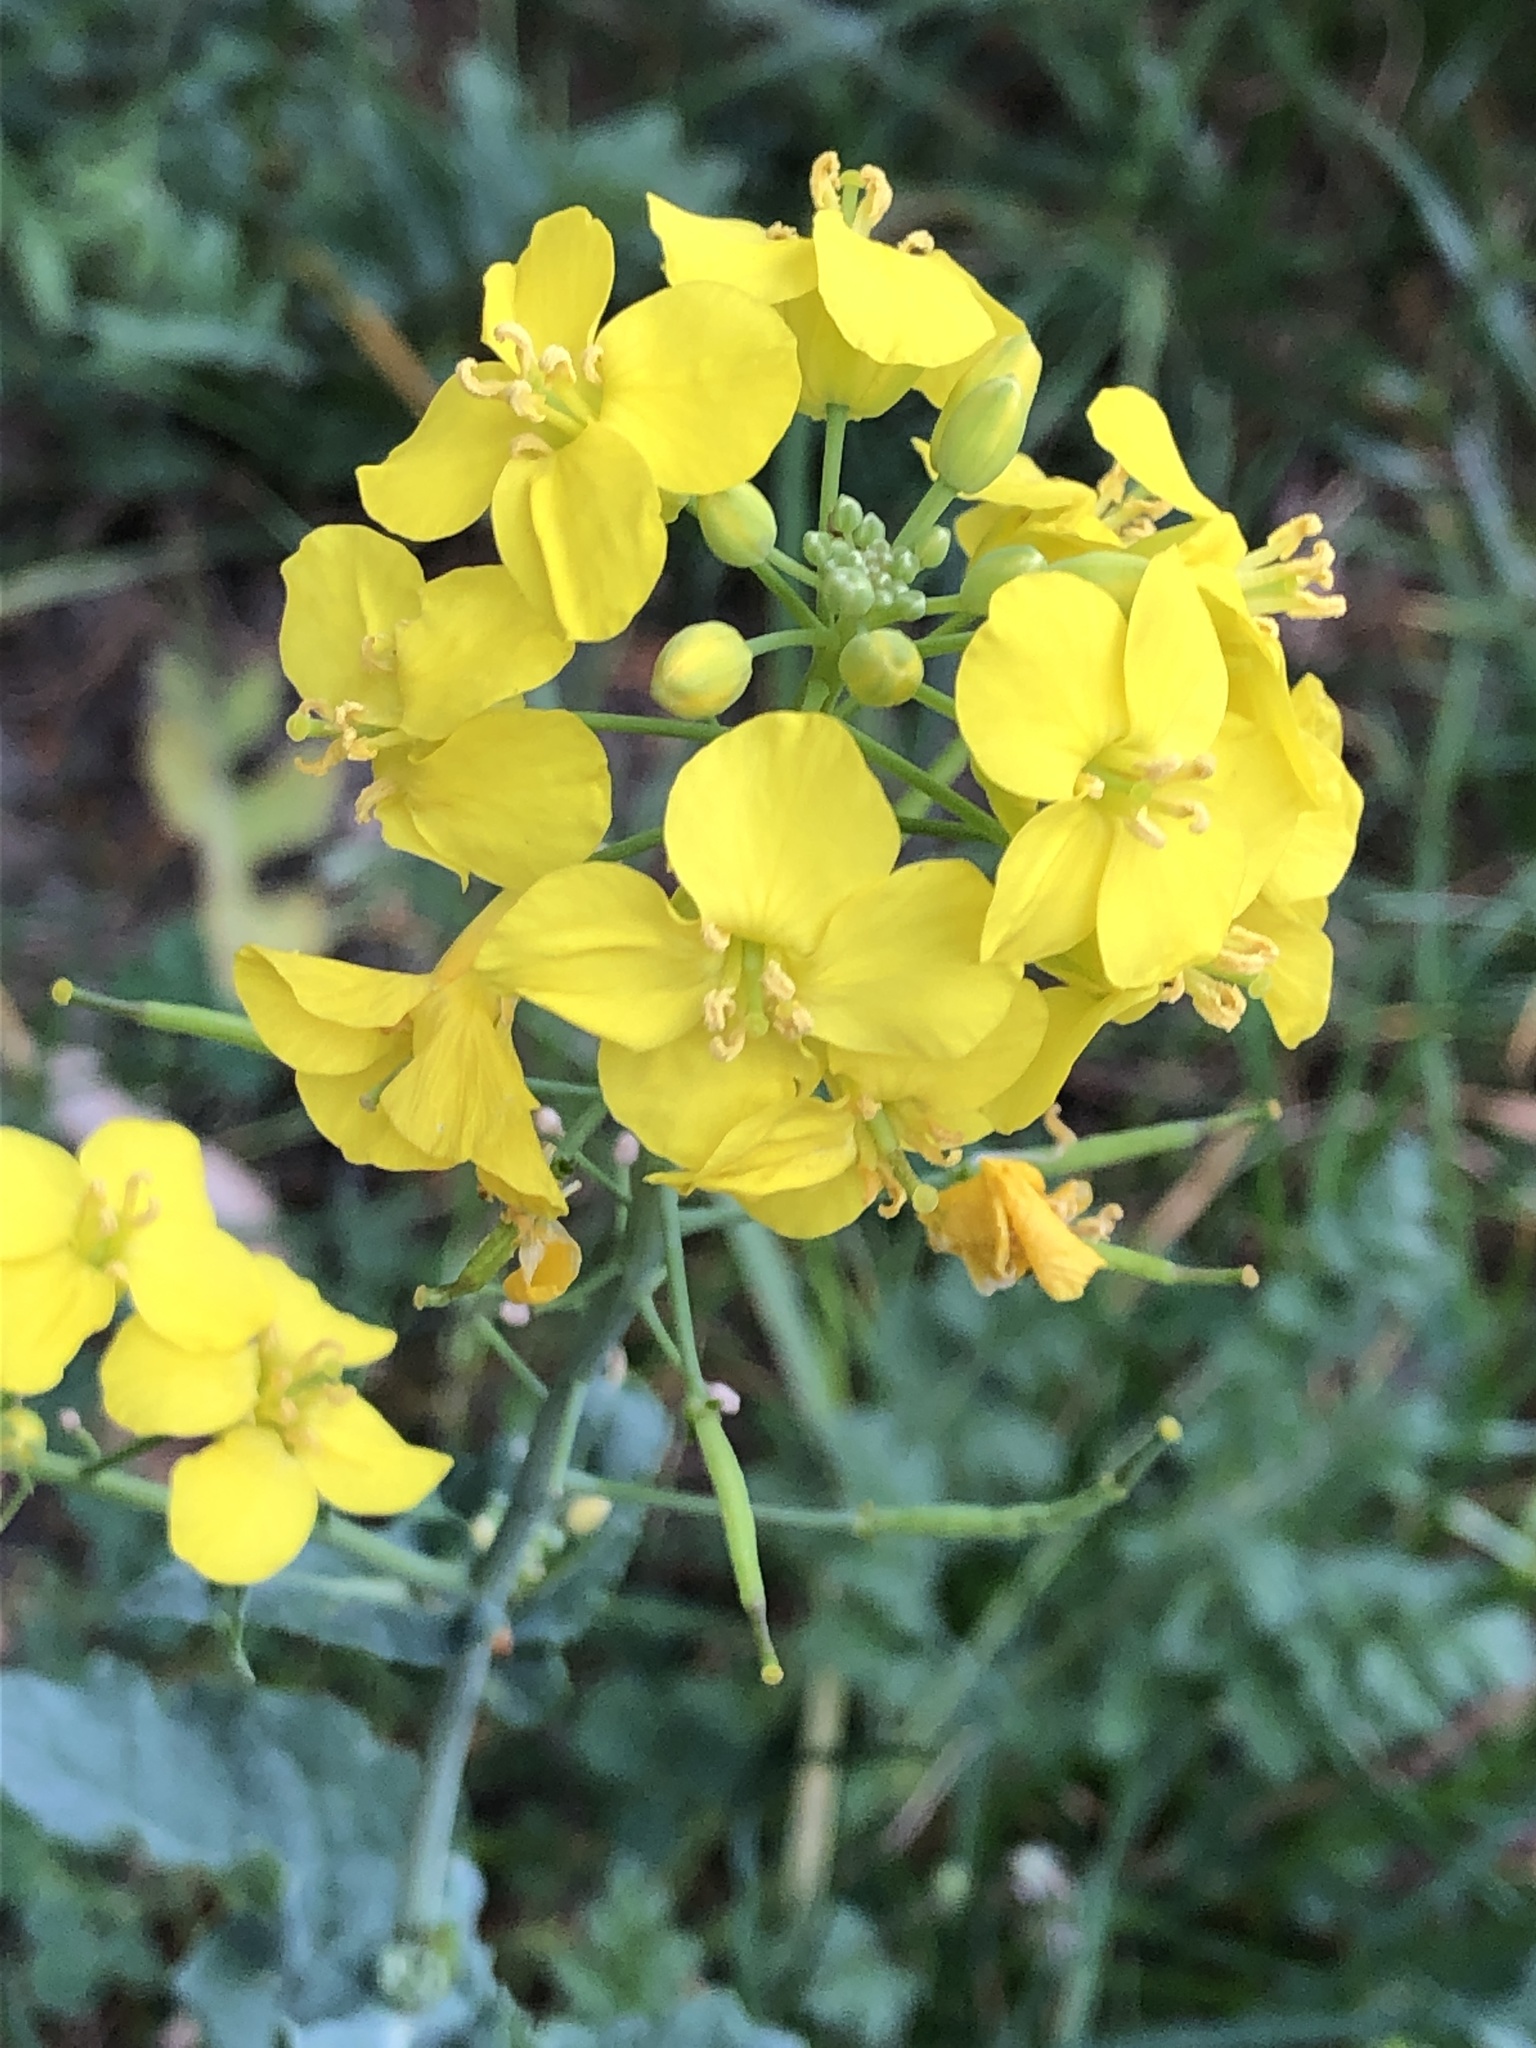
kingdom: Plantae
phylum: Tracheophyta
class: Magnoliopsida
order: Brassicales
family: Brassicaceae
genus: Brassica
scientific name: Brassica rapa
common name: Field mustard
